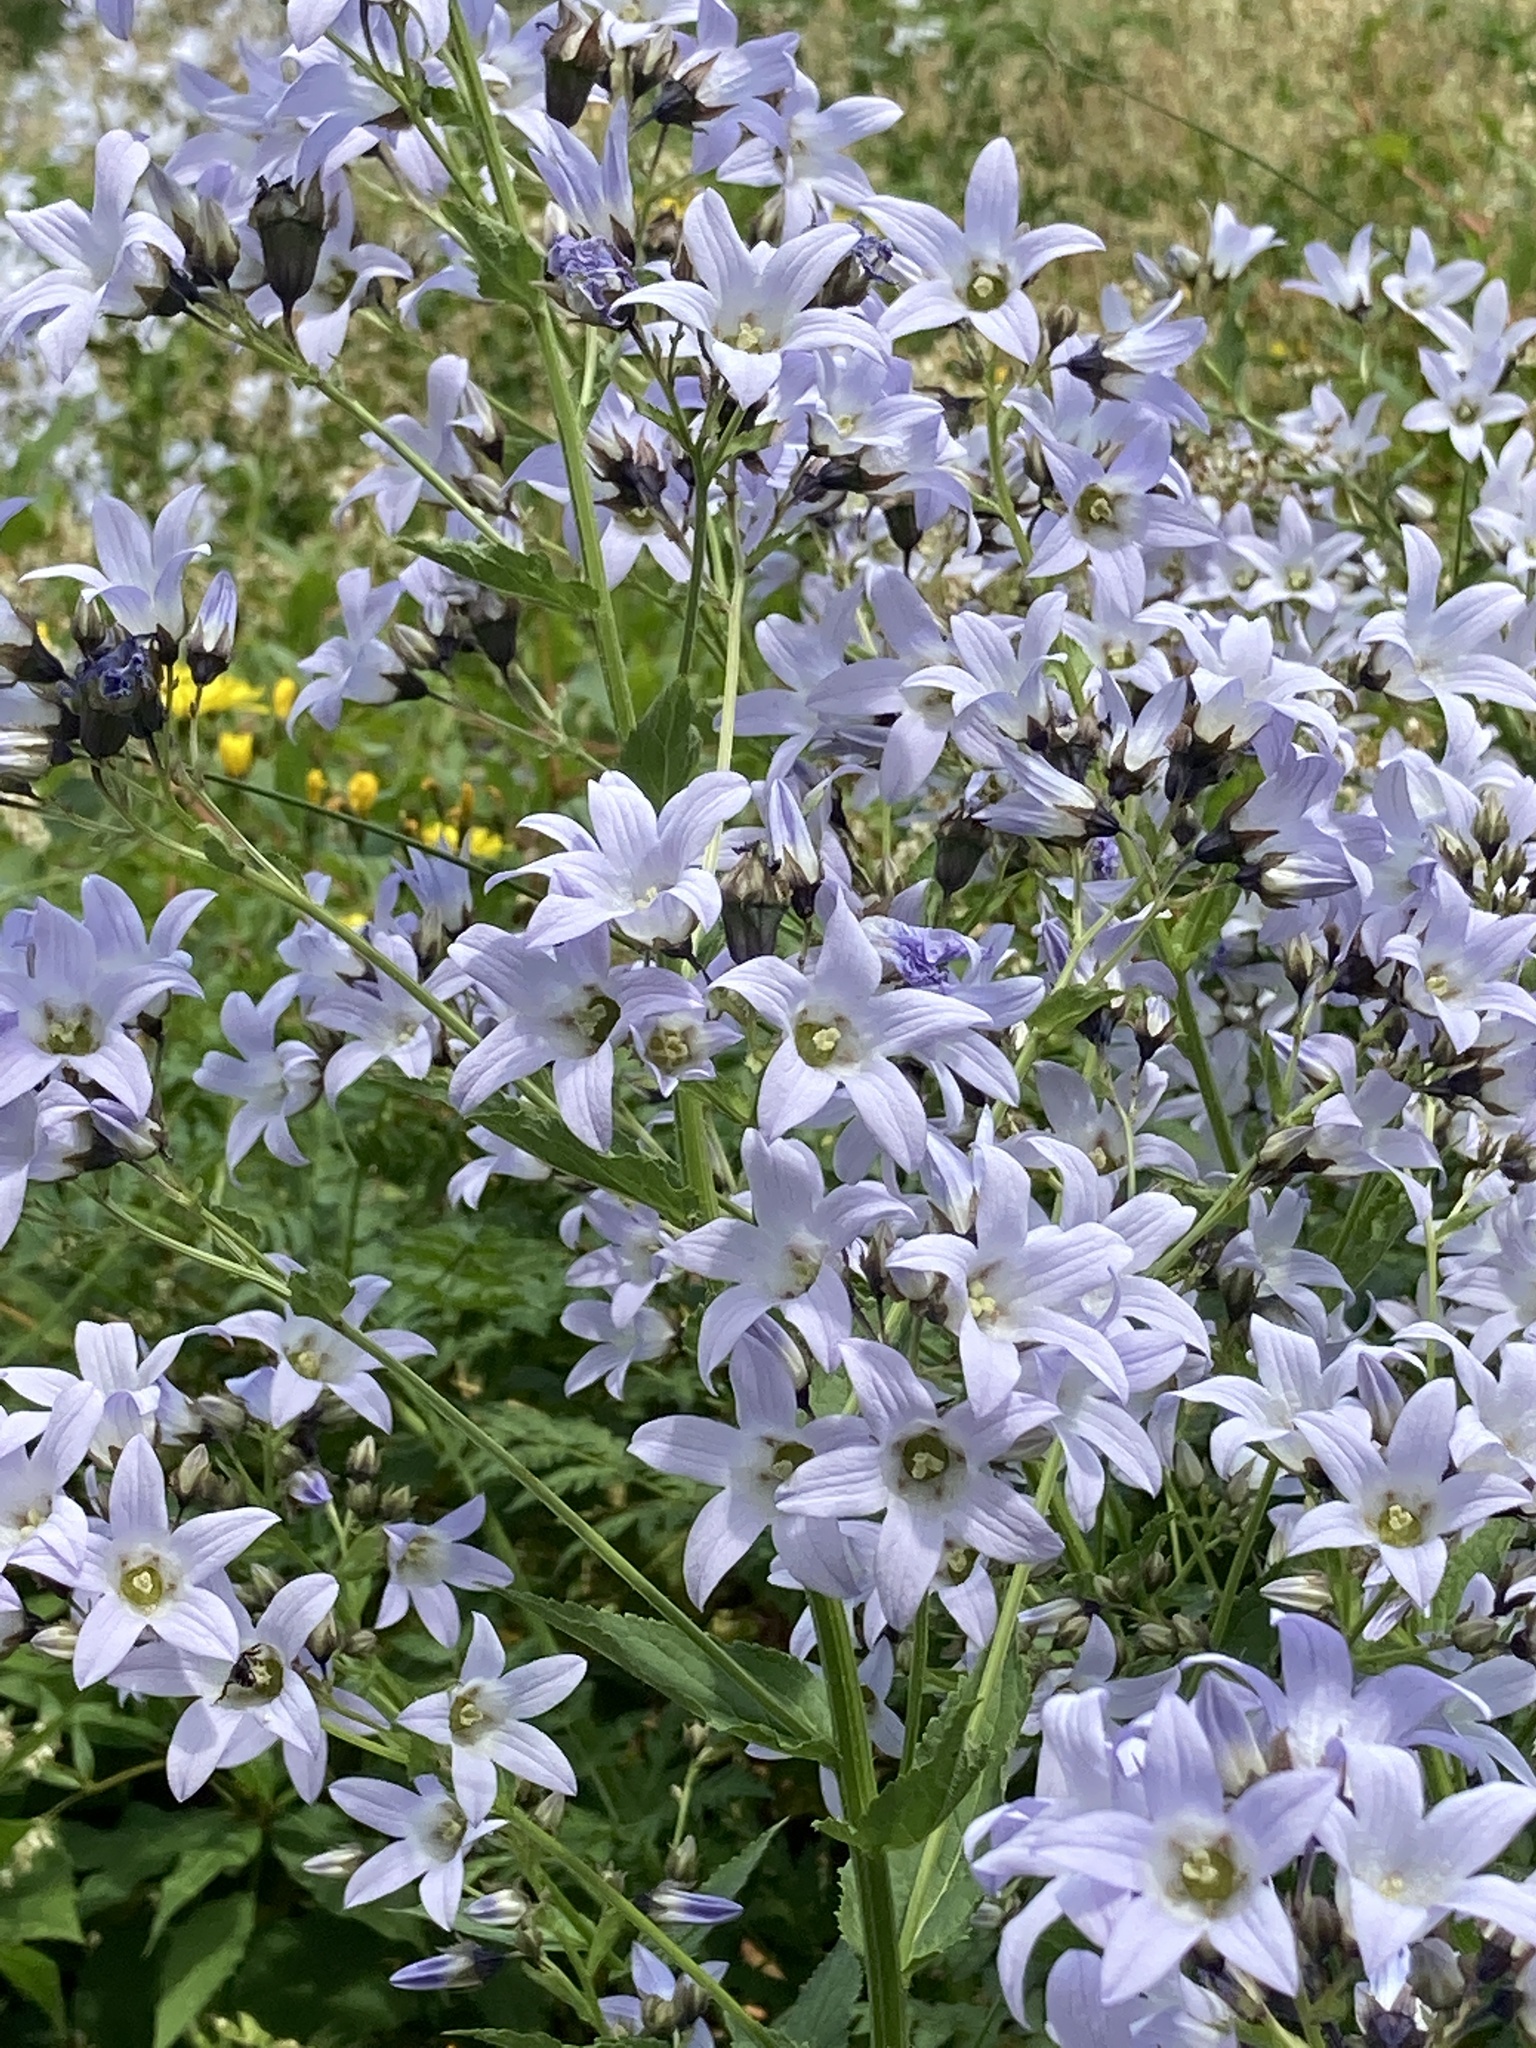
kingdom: Plantae
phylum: Tracheophyta
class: Magnoliopsida
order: Asterales
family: Campanulaceae
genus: Campanula
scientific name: Campanula lactiflora
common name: Milky bellflower
